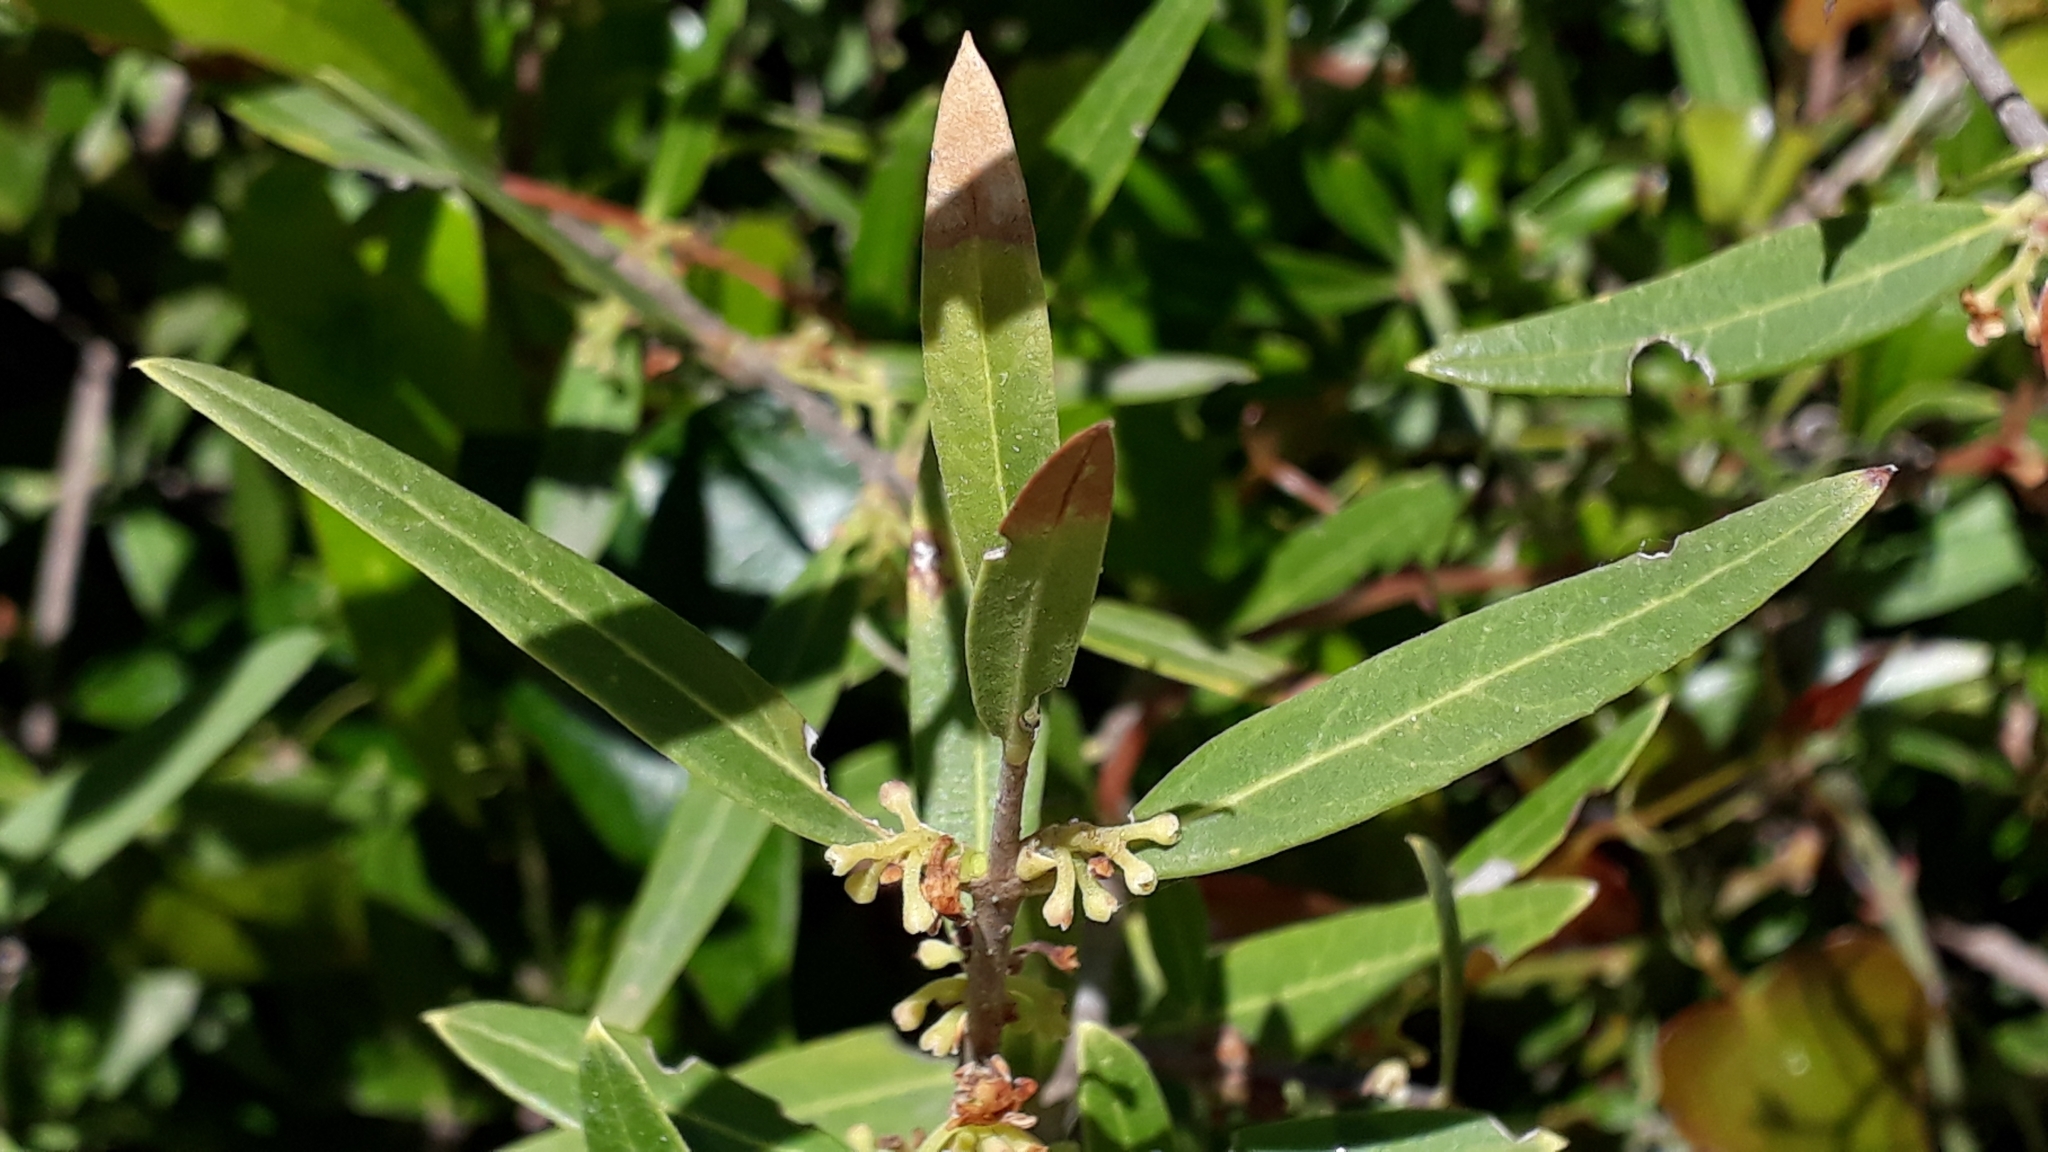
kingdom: Plantae
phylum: Tracheophyta
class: Magnoliopsida
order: Lamiales
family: Oleaceae
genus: Phillyrea
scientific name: Phillyrea angustifolia
